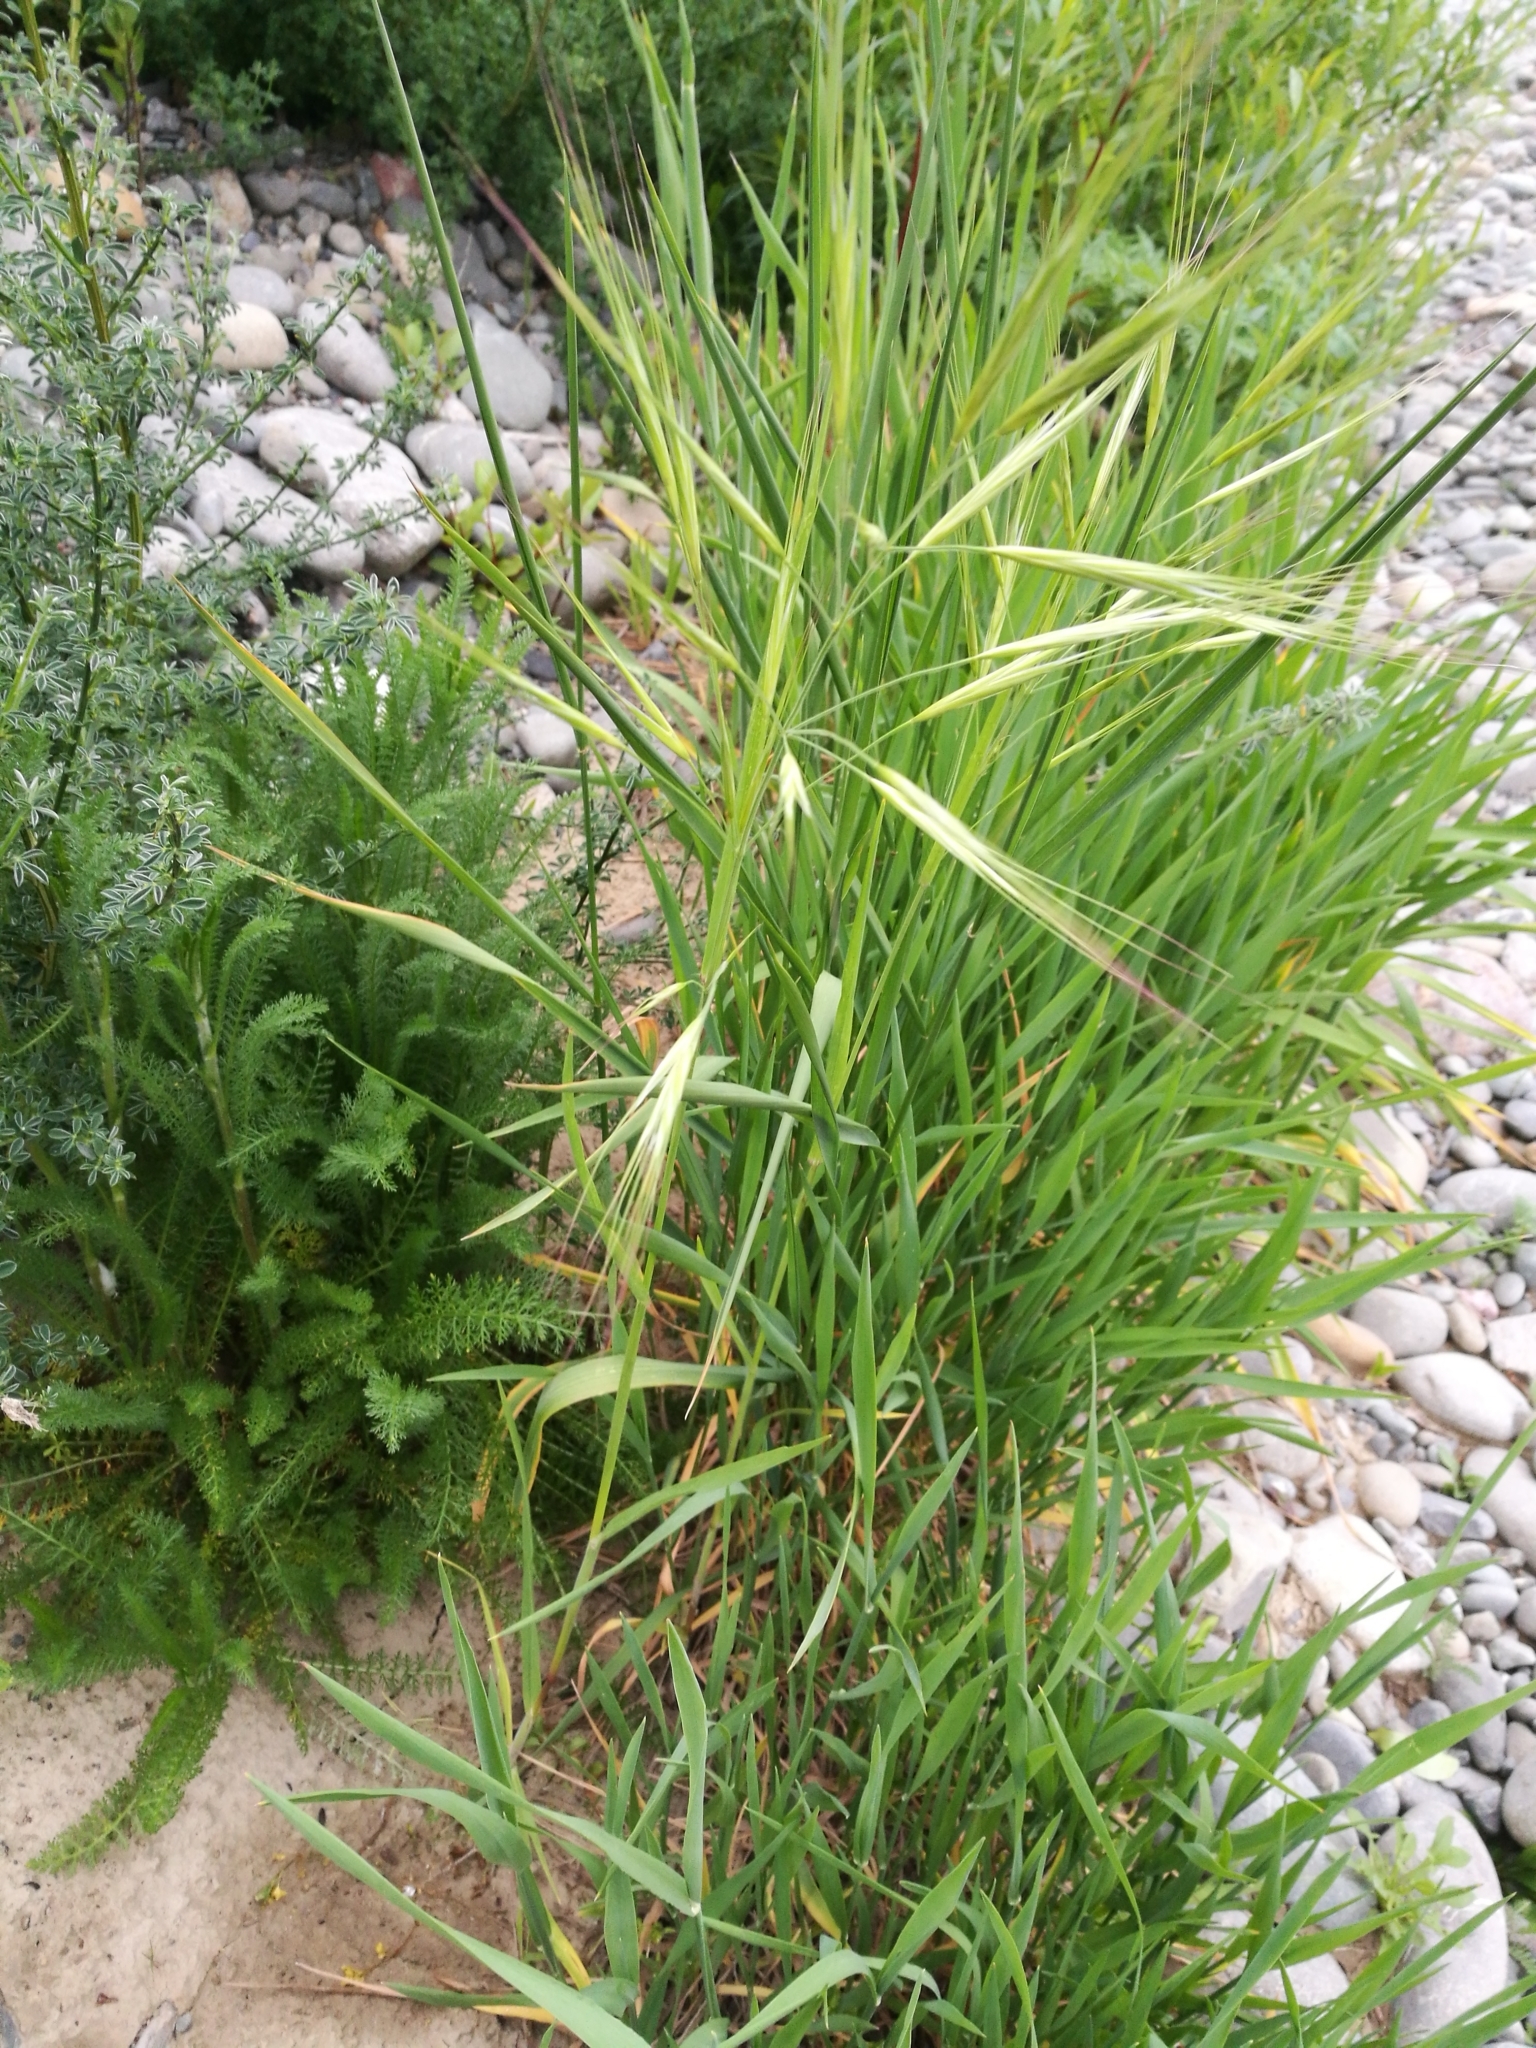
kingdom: Plantae
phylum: Tracheophyta
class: Liliopsida
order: Poales
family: Poaceae
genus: Bromus
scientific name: Bromus diandrus
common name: Ripgut brome
